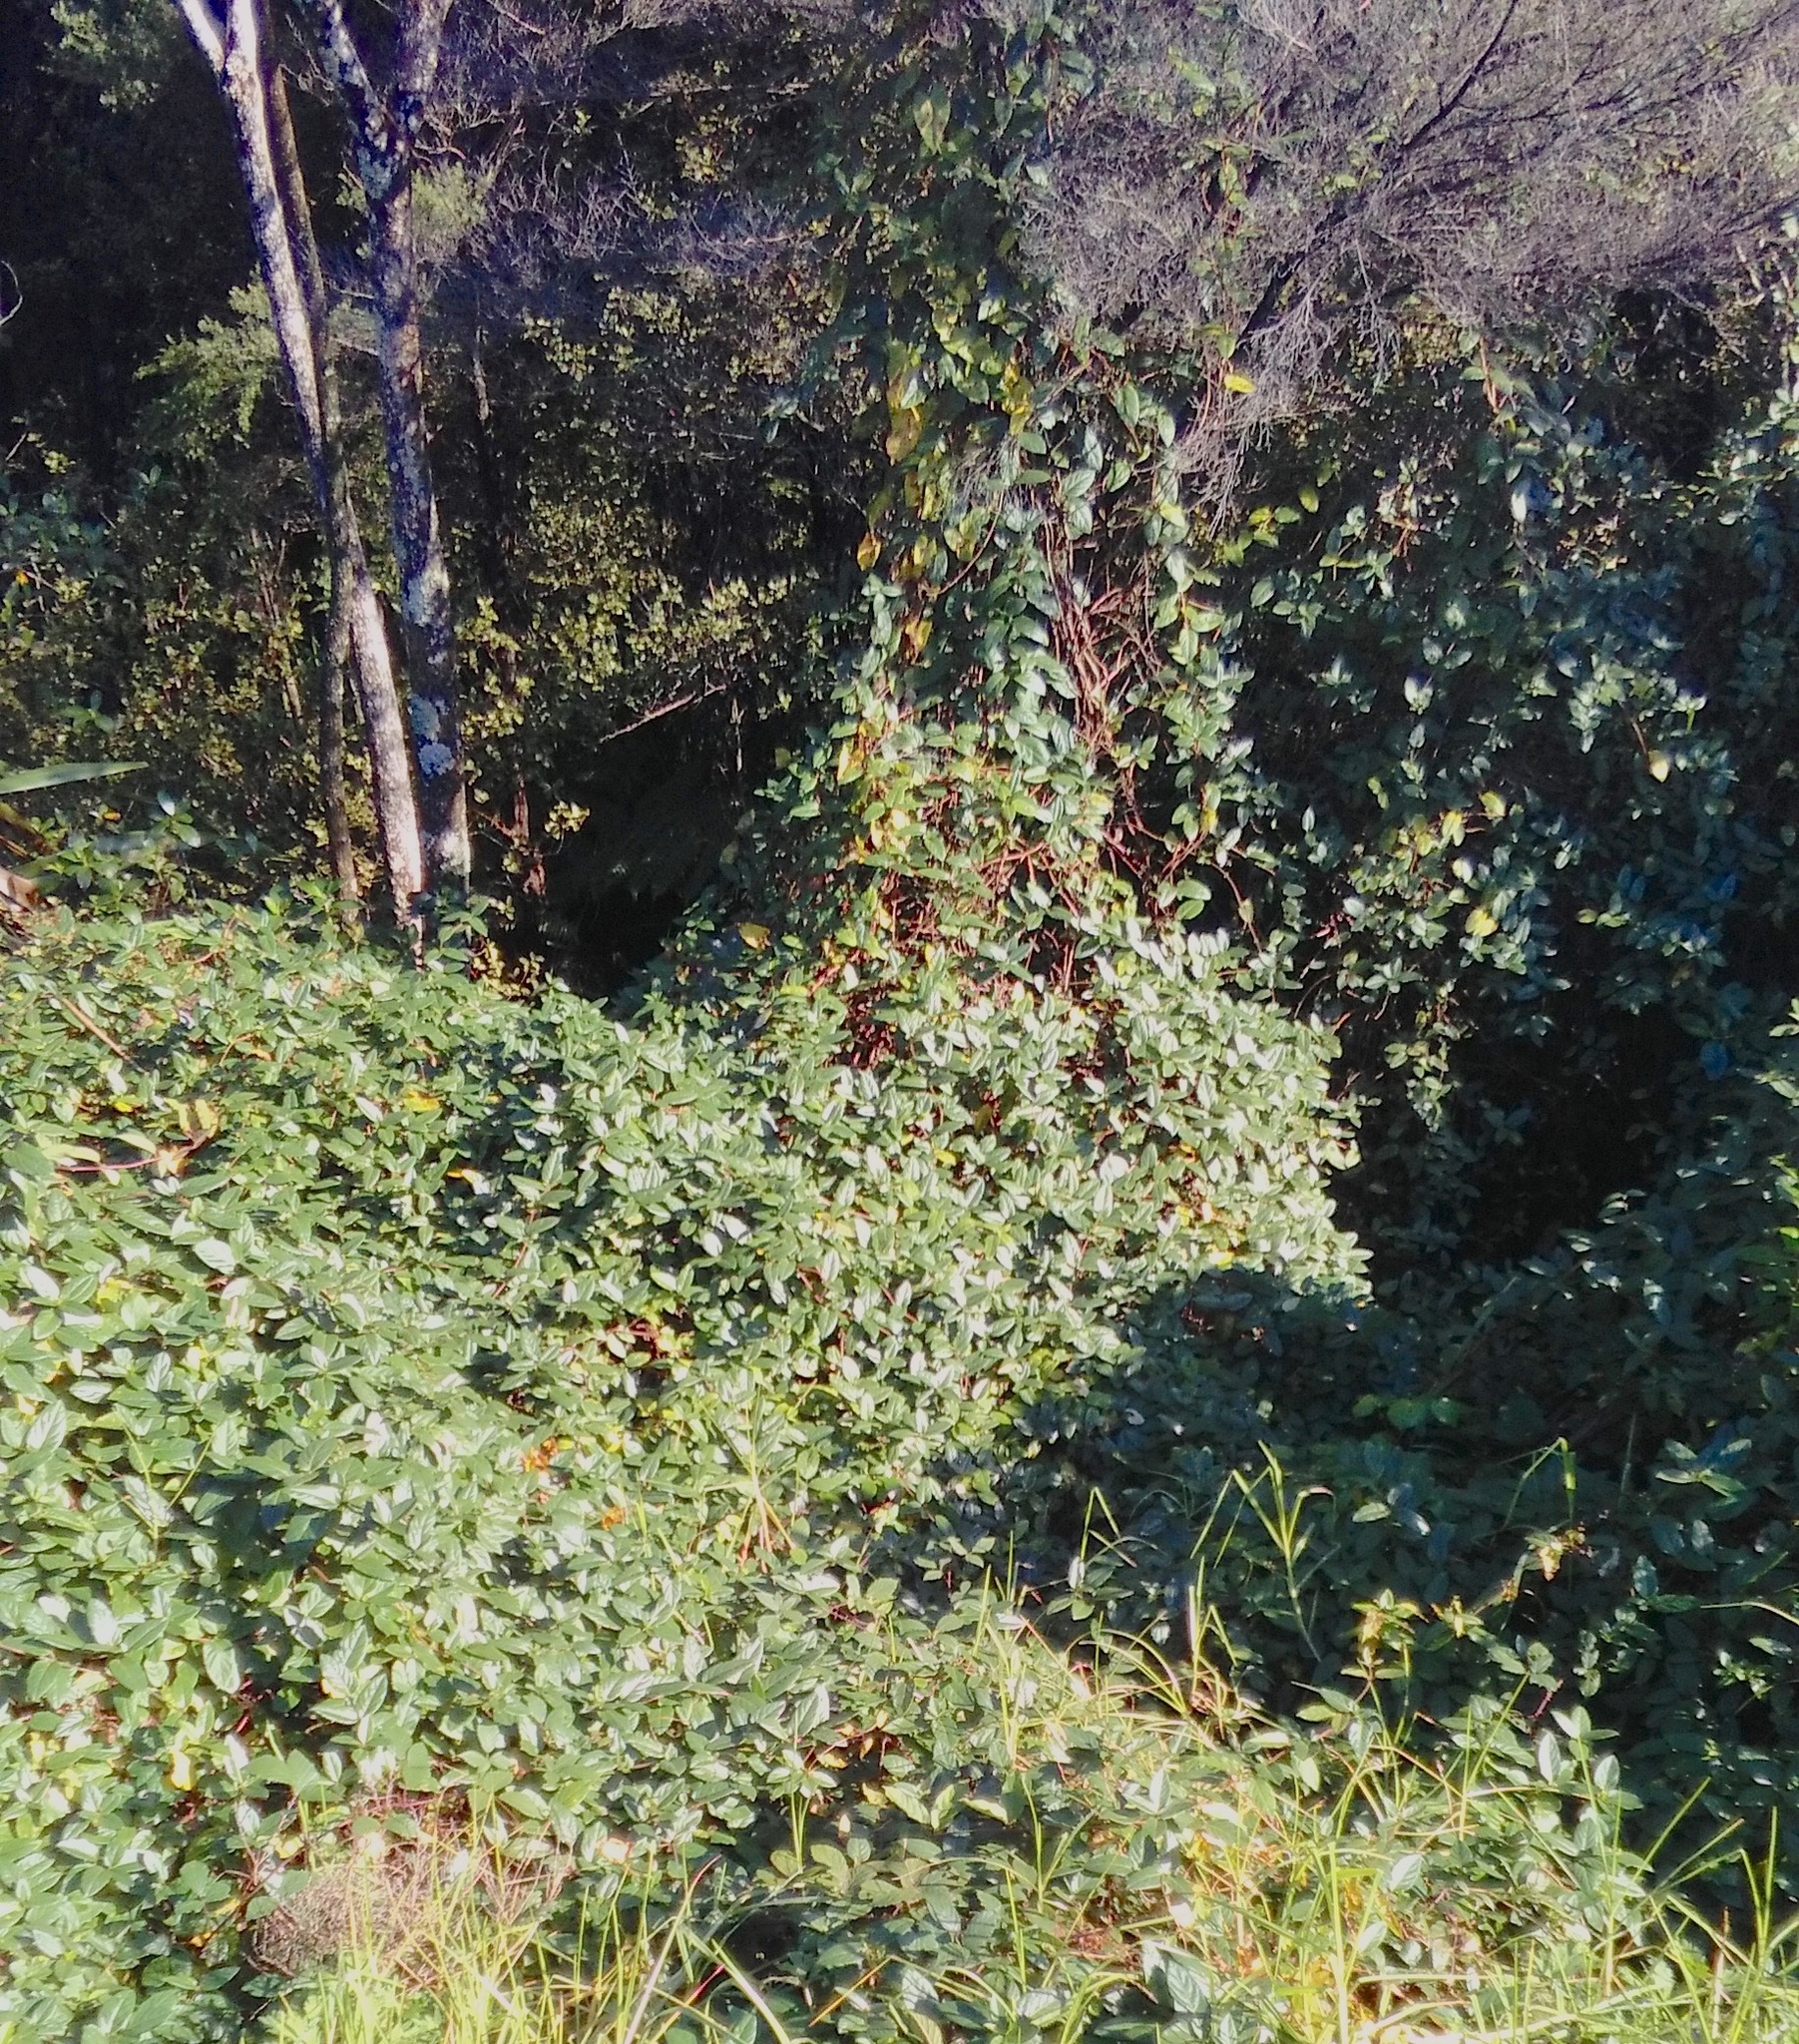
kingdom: Plantae
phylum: Tracheophyta
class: Magnoliopsida
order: Dipsacales
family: Caprifoliaceae
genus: Lonicera
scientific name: Lonicera japonica
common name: Japanese honeysuckle
